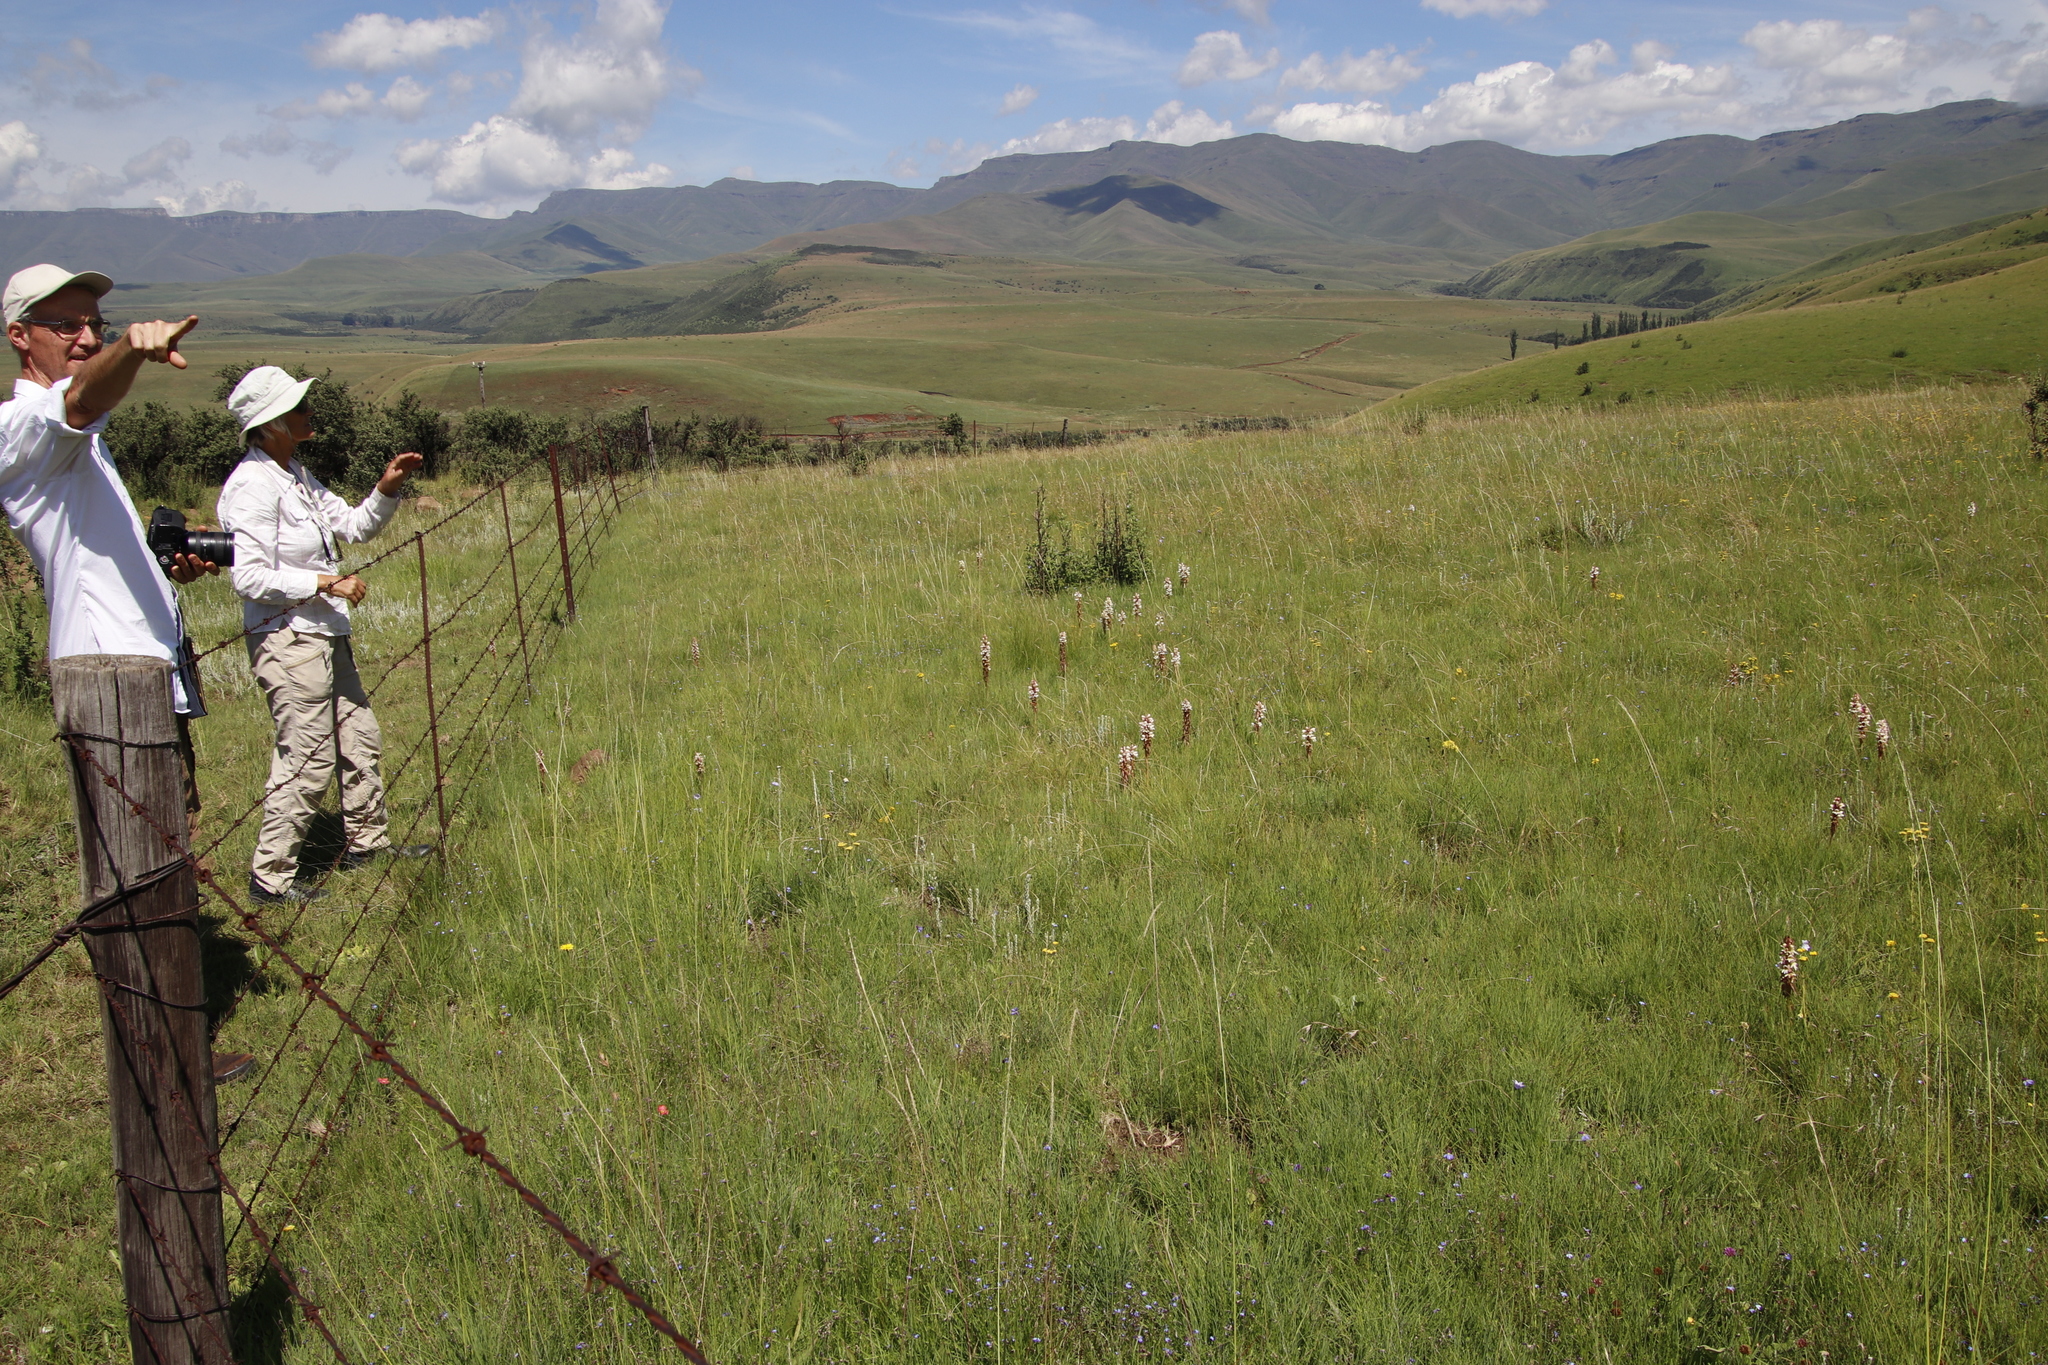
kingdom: Plantae
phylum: Tracheophyta
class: Liliopsida
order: Asparagales
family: Orchidaceae
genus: Satyrium
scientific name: Satyrium sphaerocarpum
